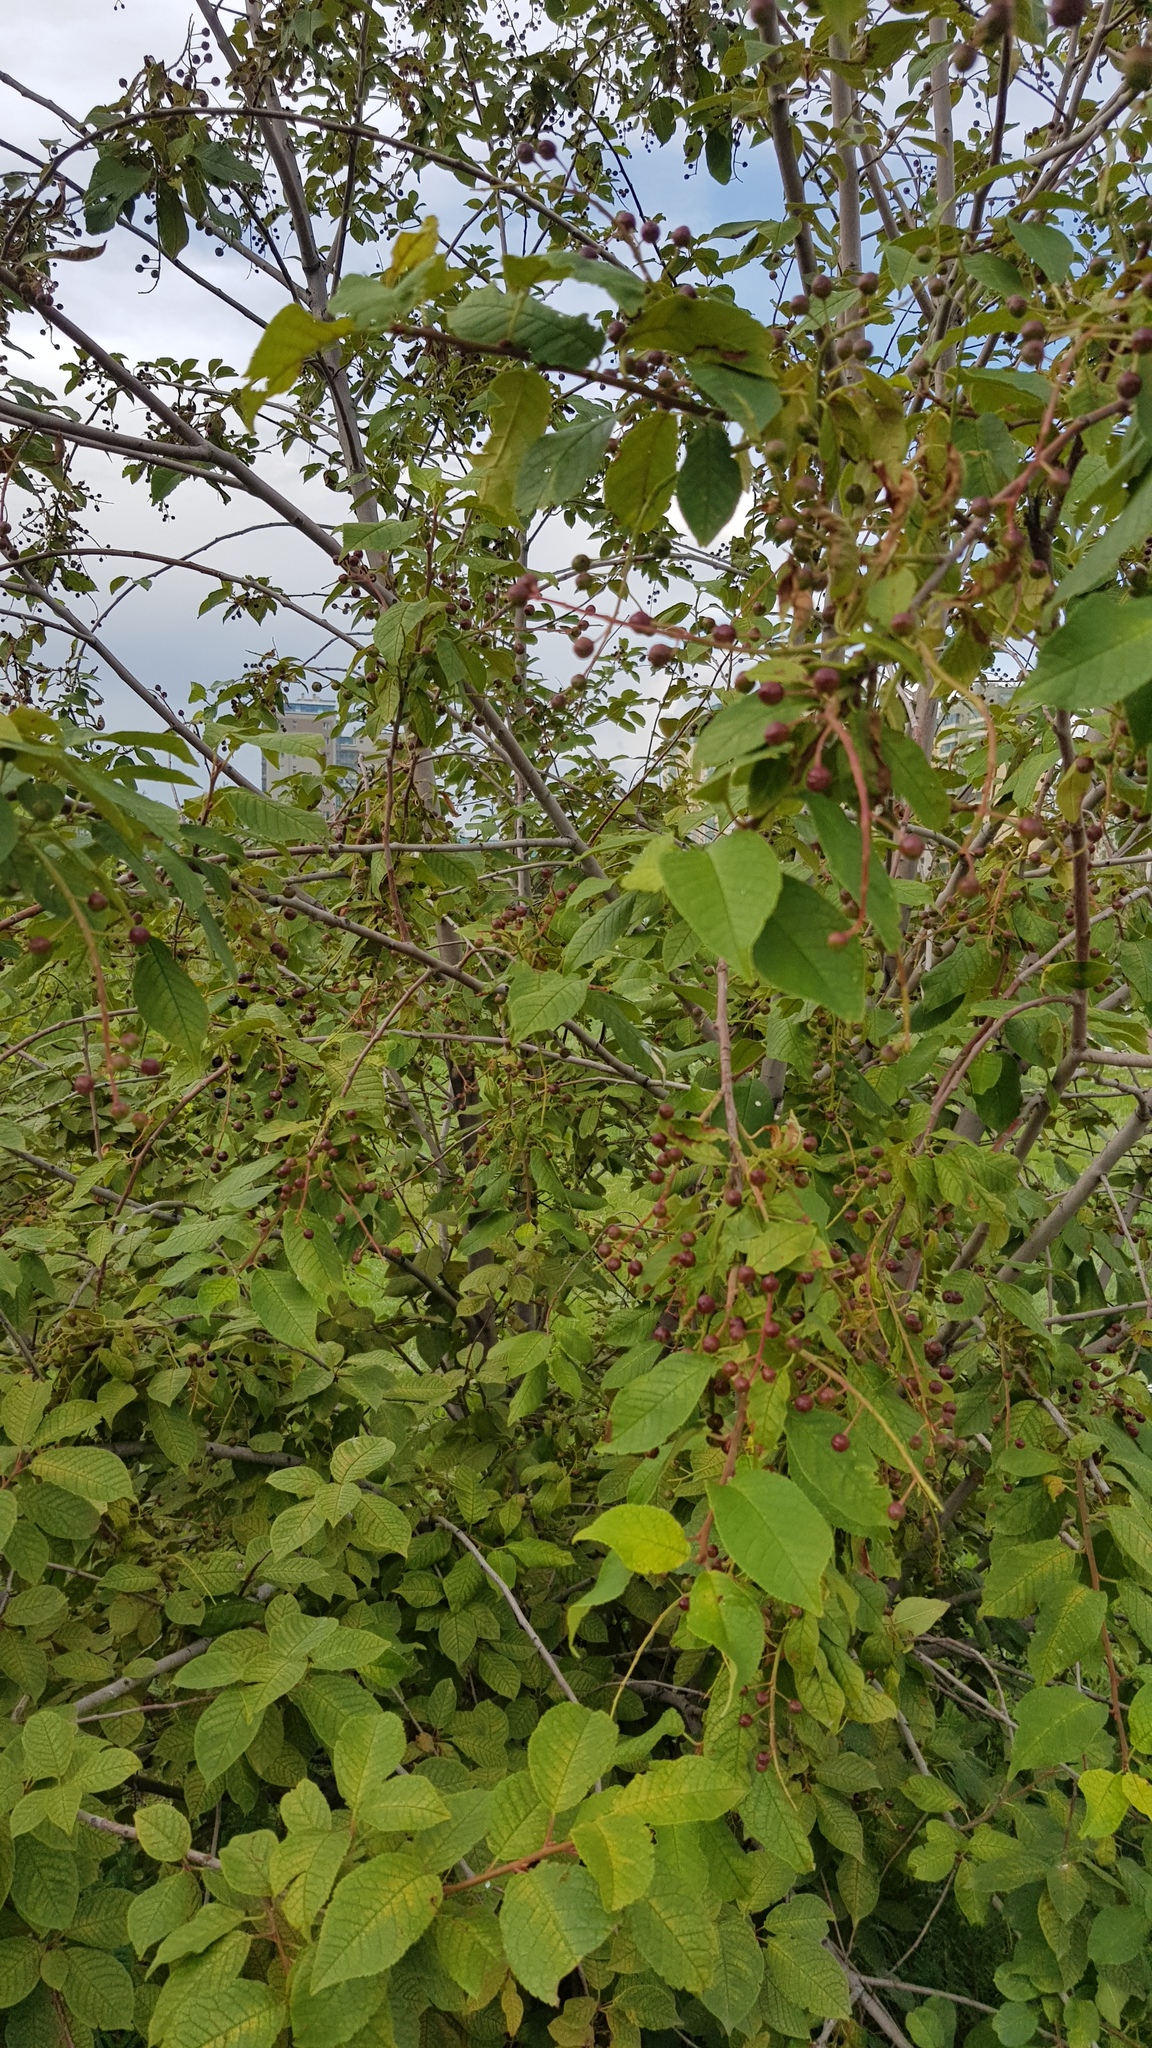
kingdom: Plantae
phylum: Tracheophyta
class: Magnoliopsida
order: Rosales
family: Rosaceae
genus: Prunus
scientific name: Prunus padus
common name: Bird cherry
